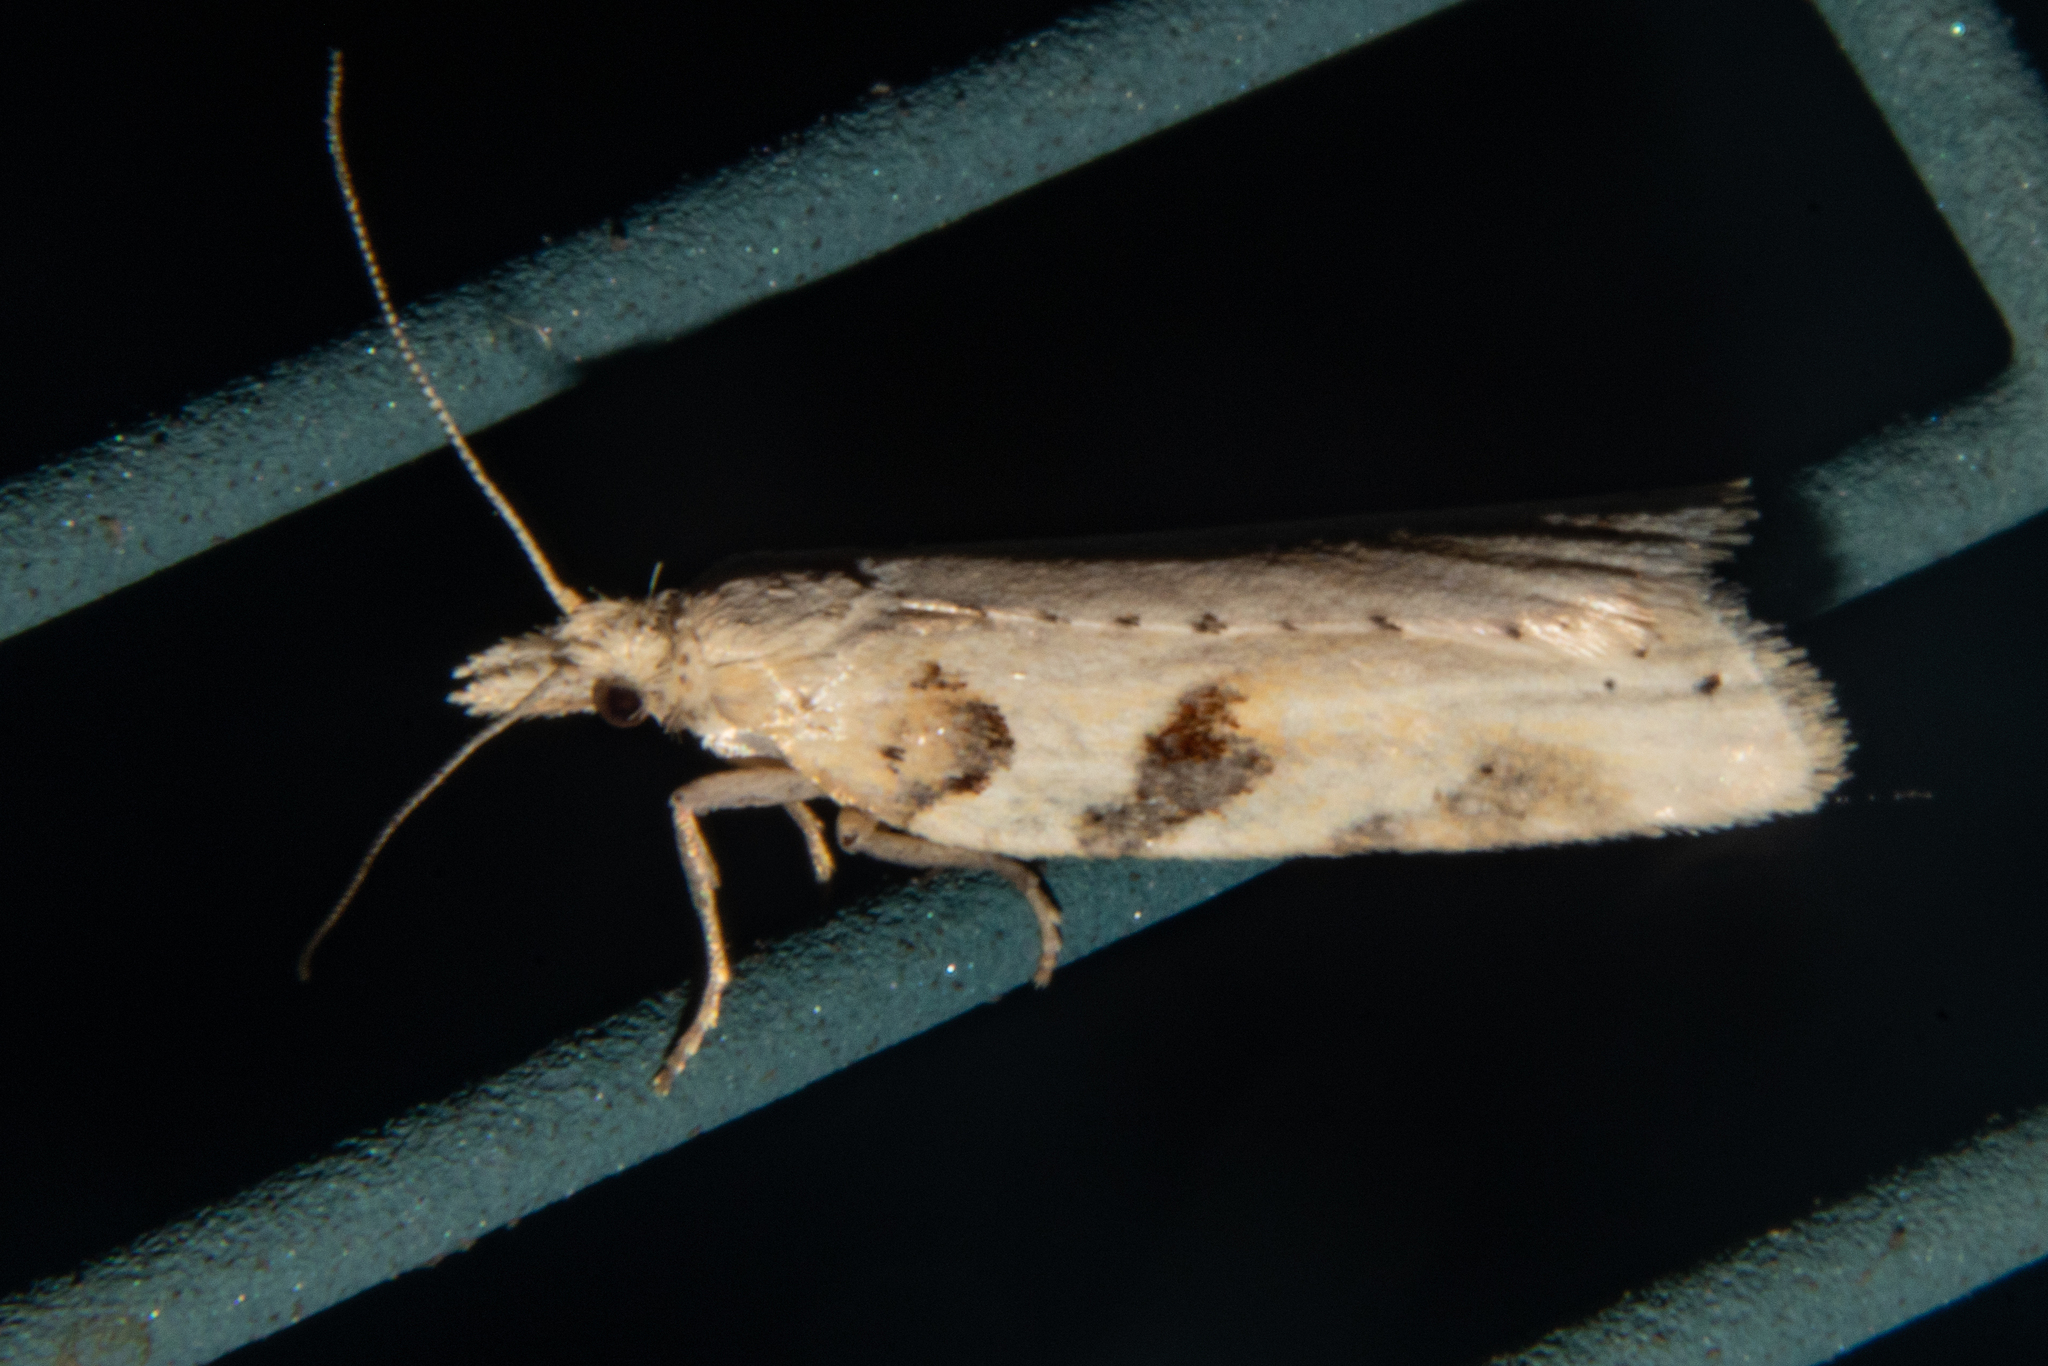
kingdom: Animalia
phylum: Arthropoda
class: Insecta
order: Lepidoptera
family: Tortricidae
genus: Apoctena
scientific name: Apoctena persecta
